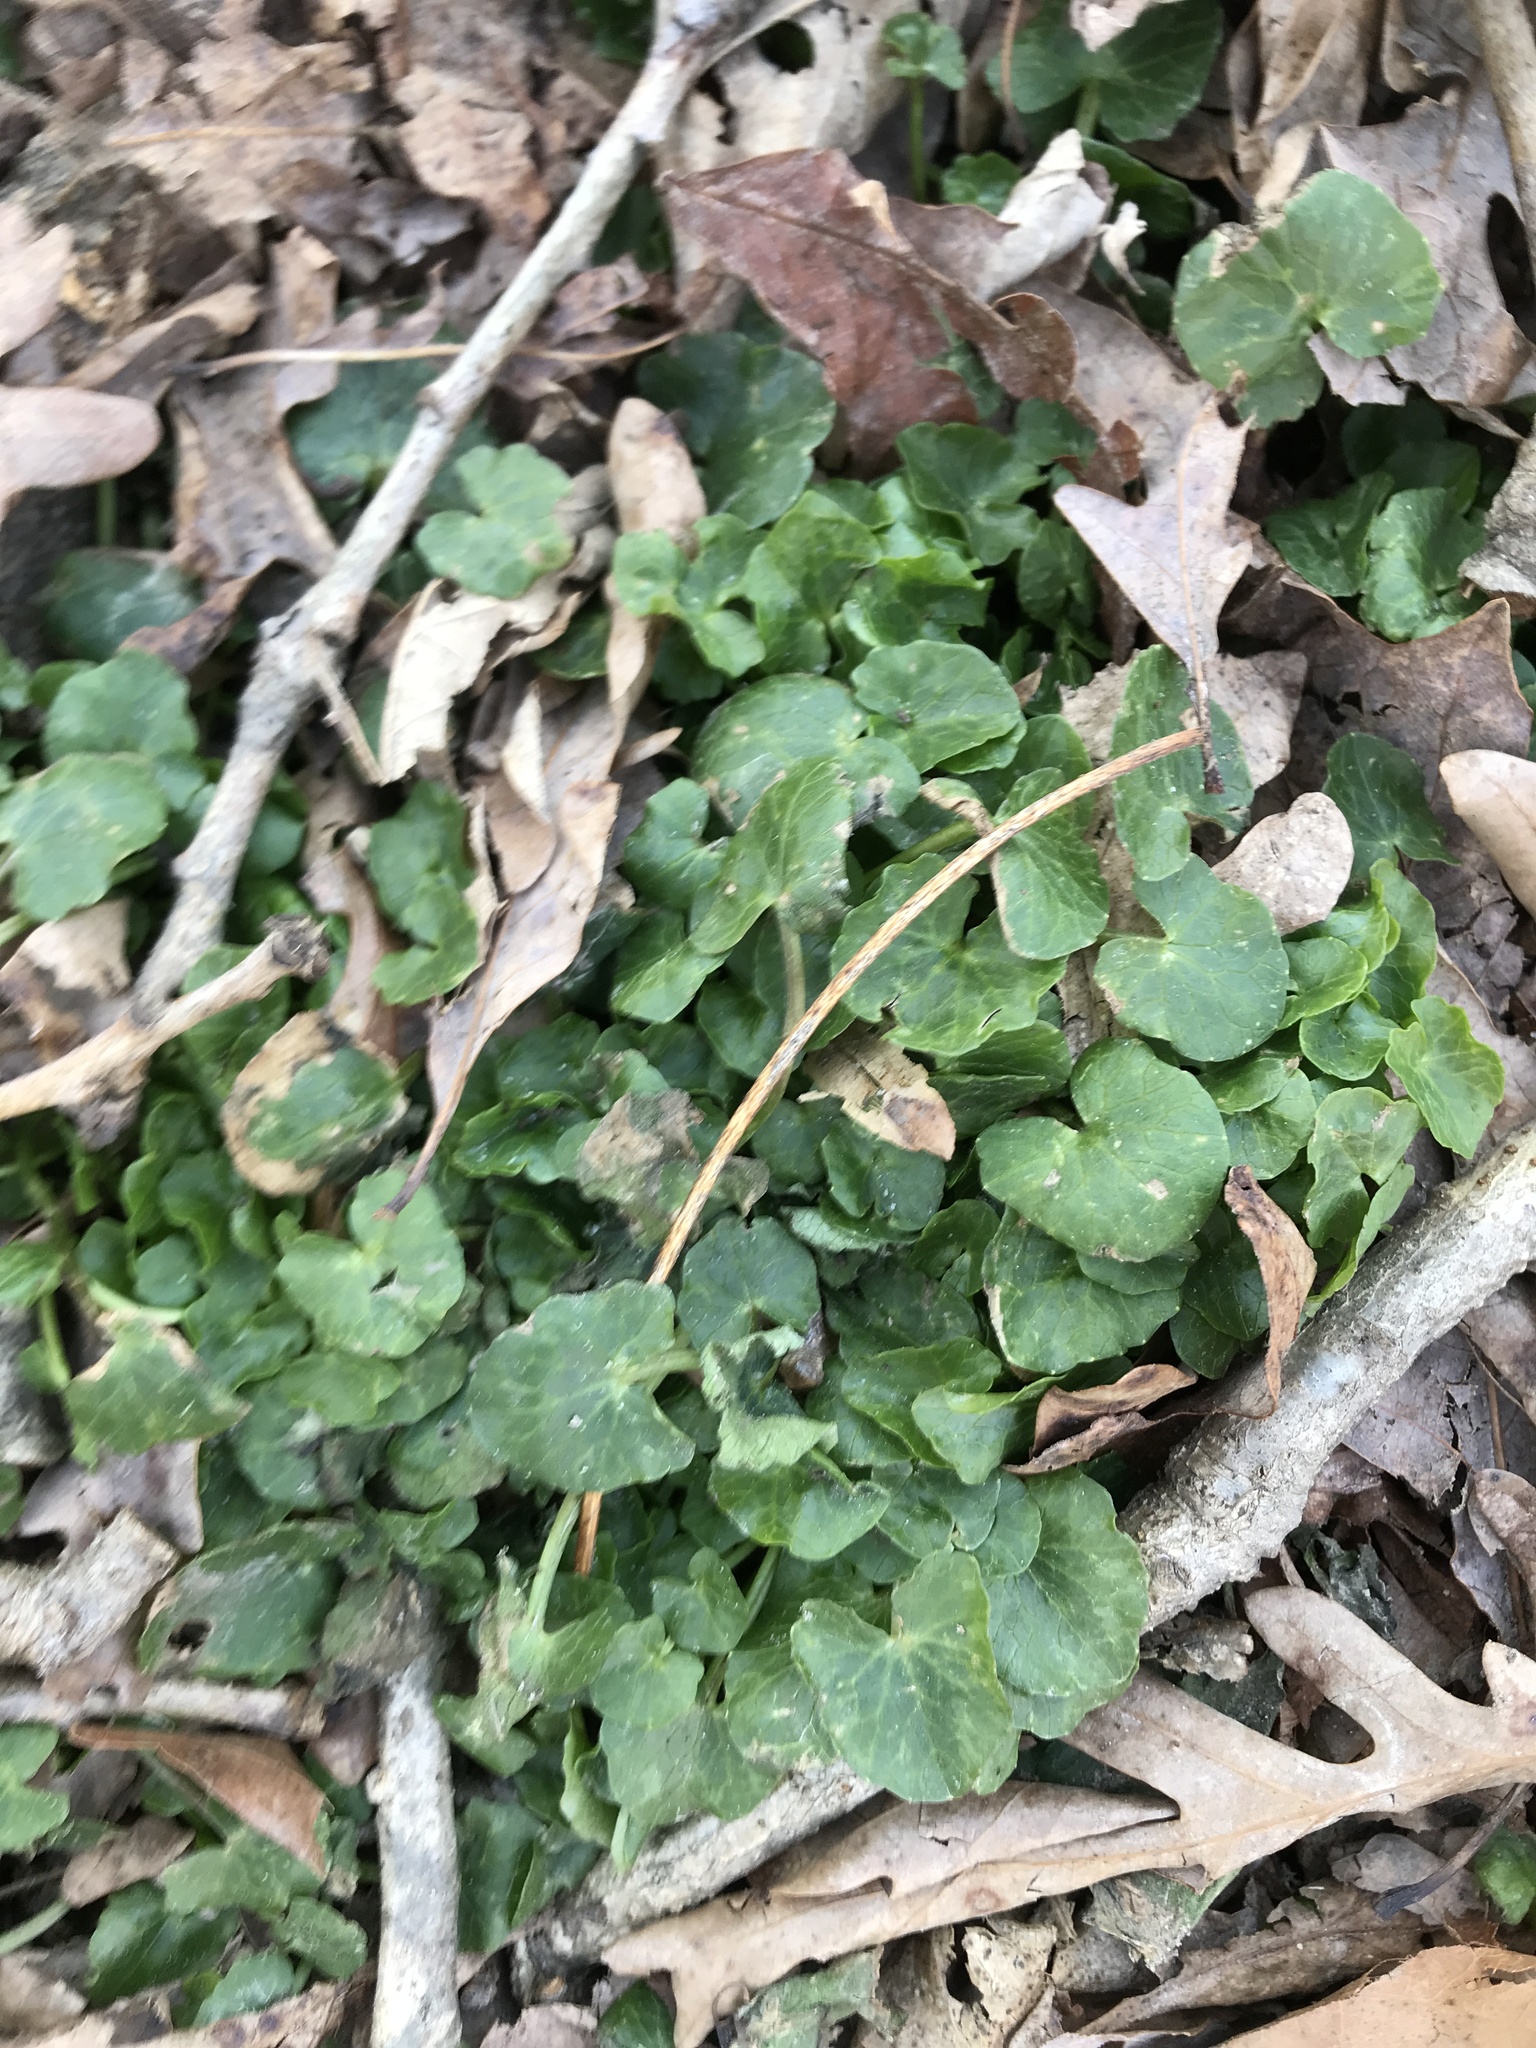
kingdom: Plantae
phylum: Tracheophyta
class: Magnoliopsida
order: Ranunculales
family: Ranunculaceae
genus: Ficaria
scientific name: Ficaria verna
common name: Lesser celandine
